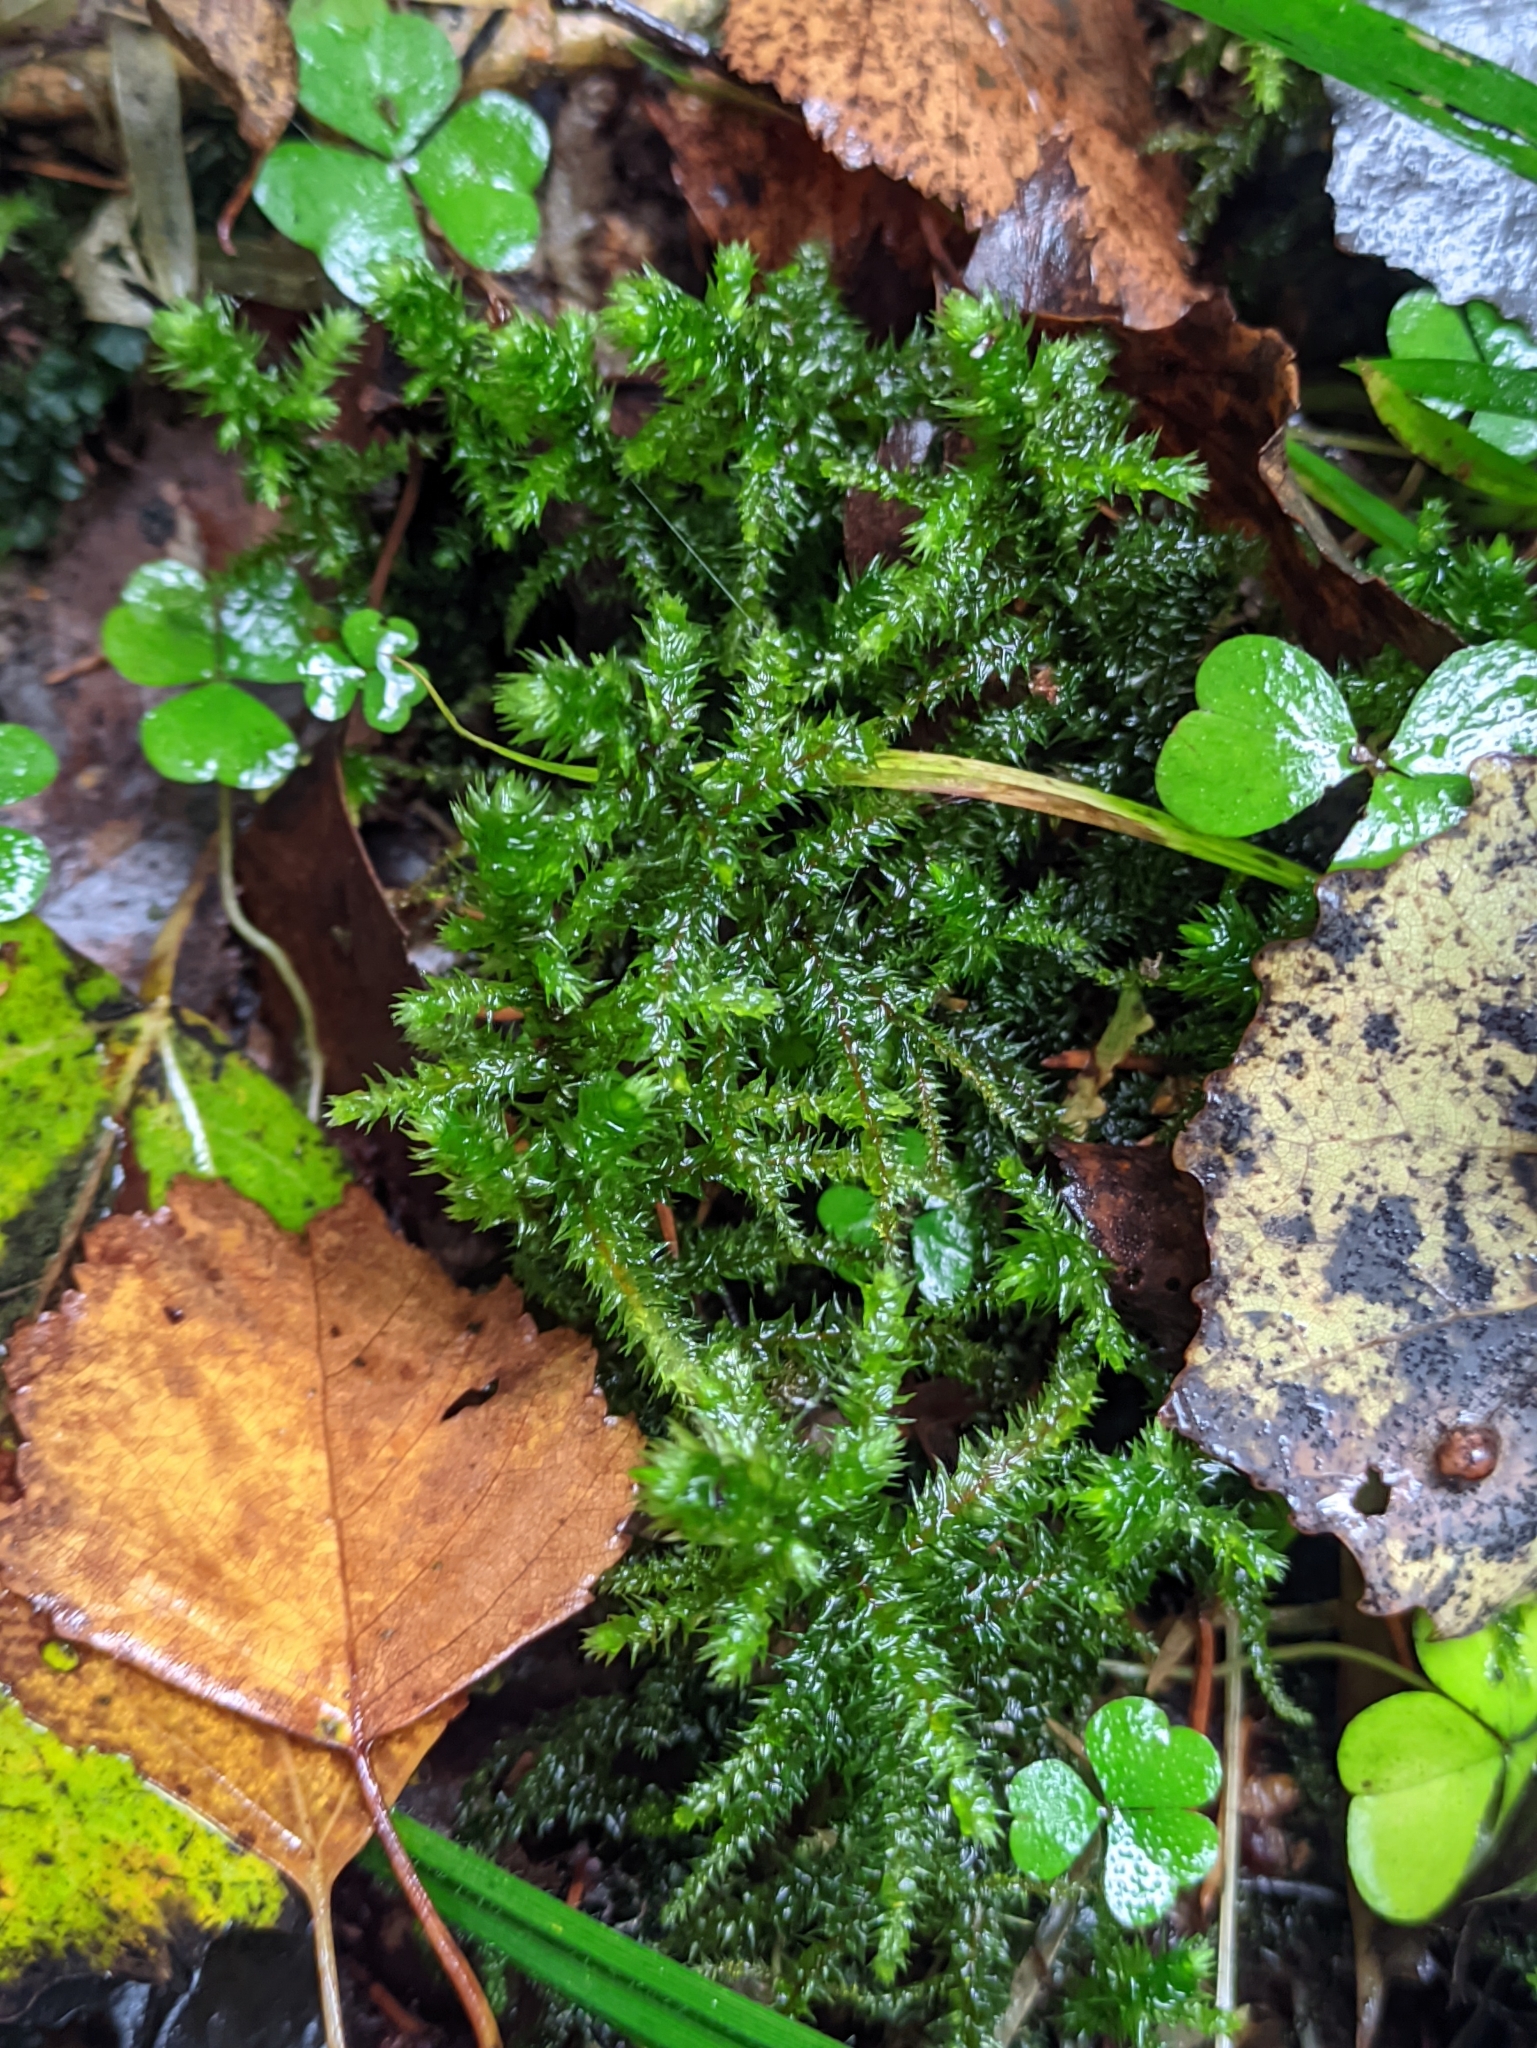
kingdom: Plantae
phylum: Bryophyta
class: Bryopsida
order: Hypnales
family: Hylocomiaceae
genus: Hylocomiadelphus
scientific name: Hylocomiadelphus triquetrus
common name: Rough goose neck moss
